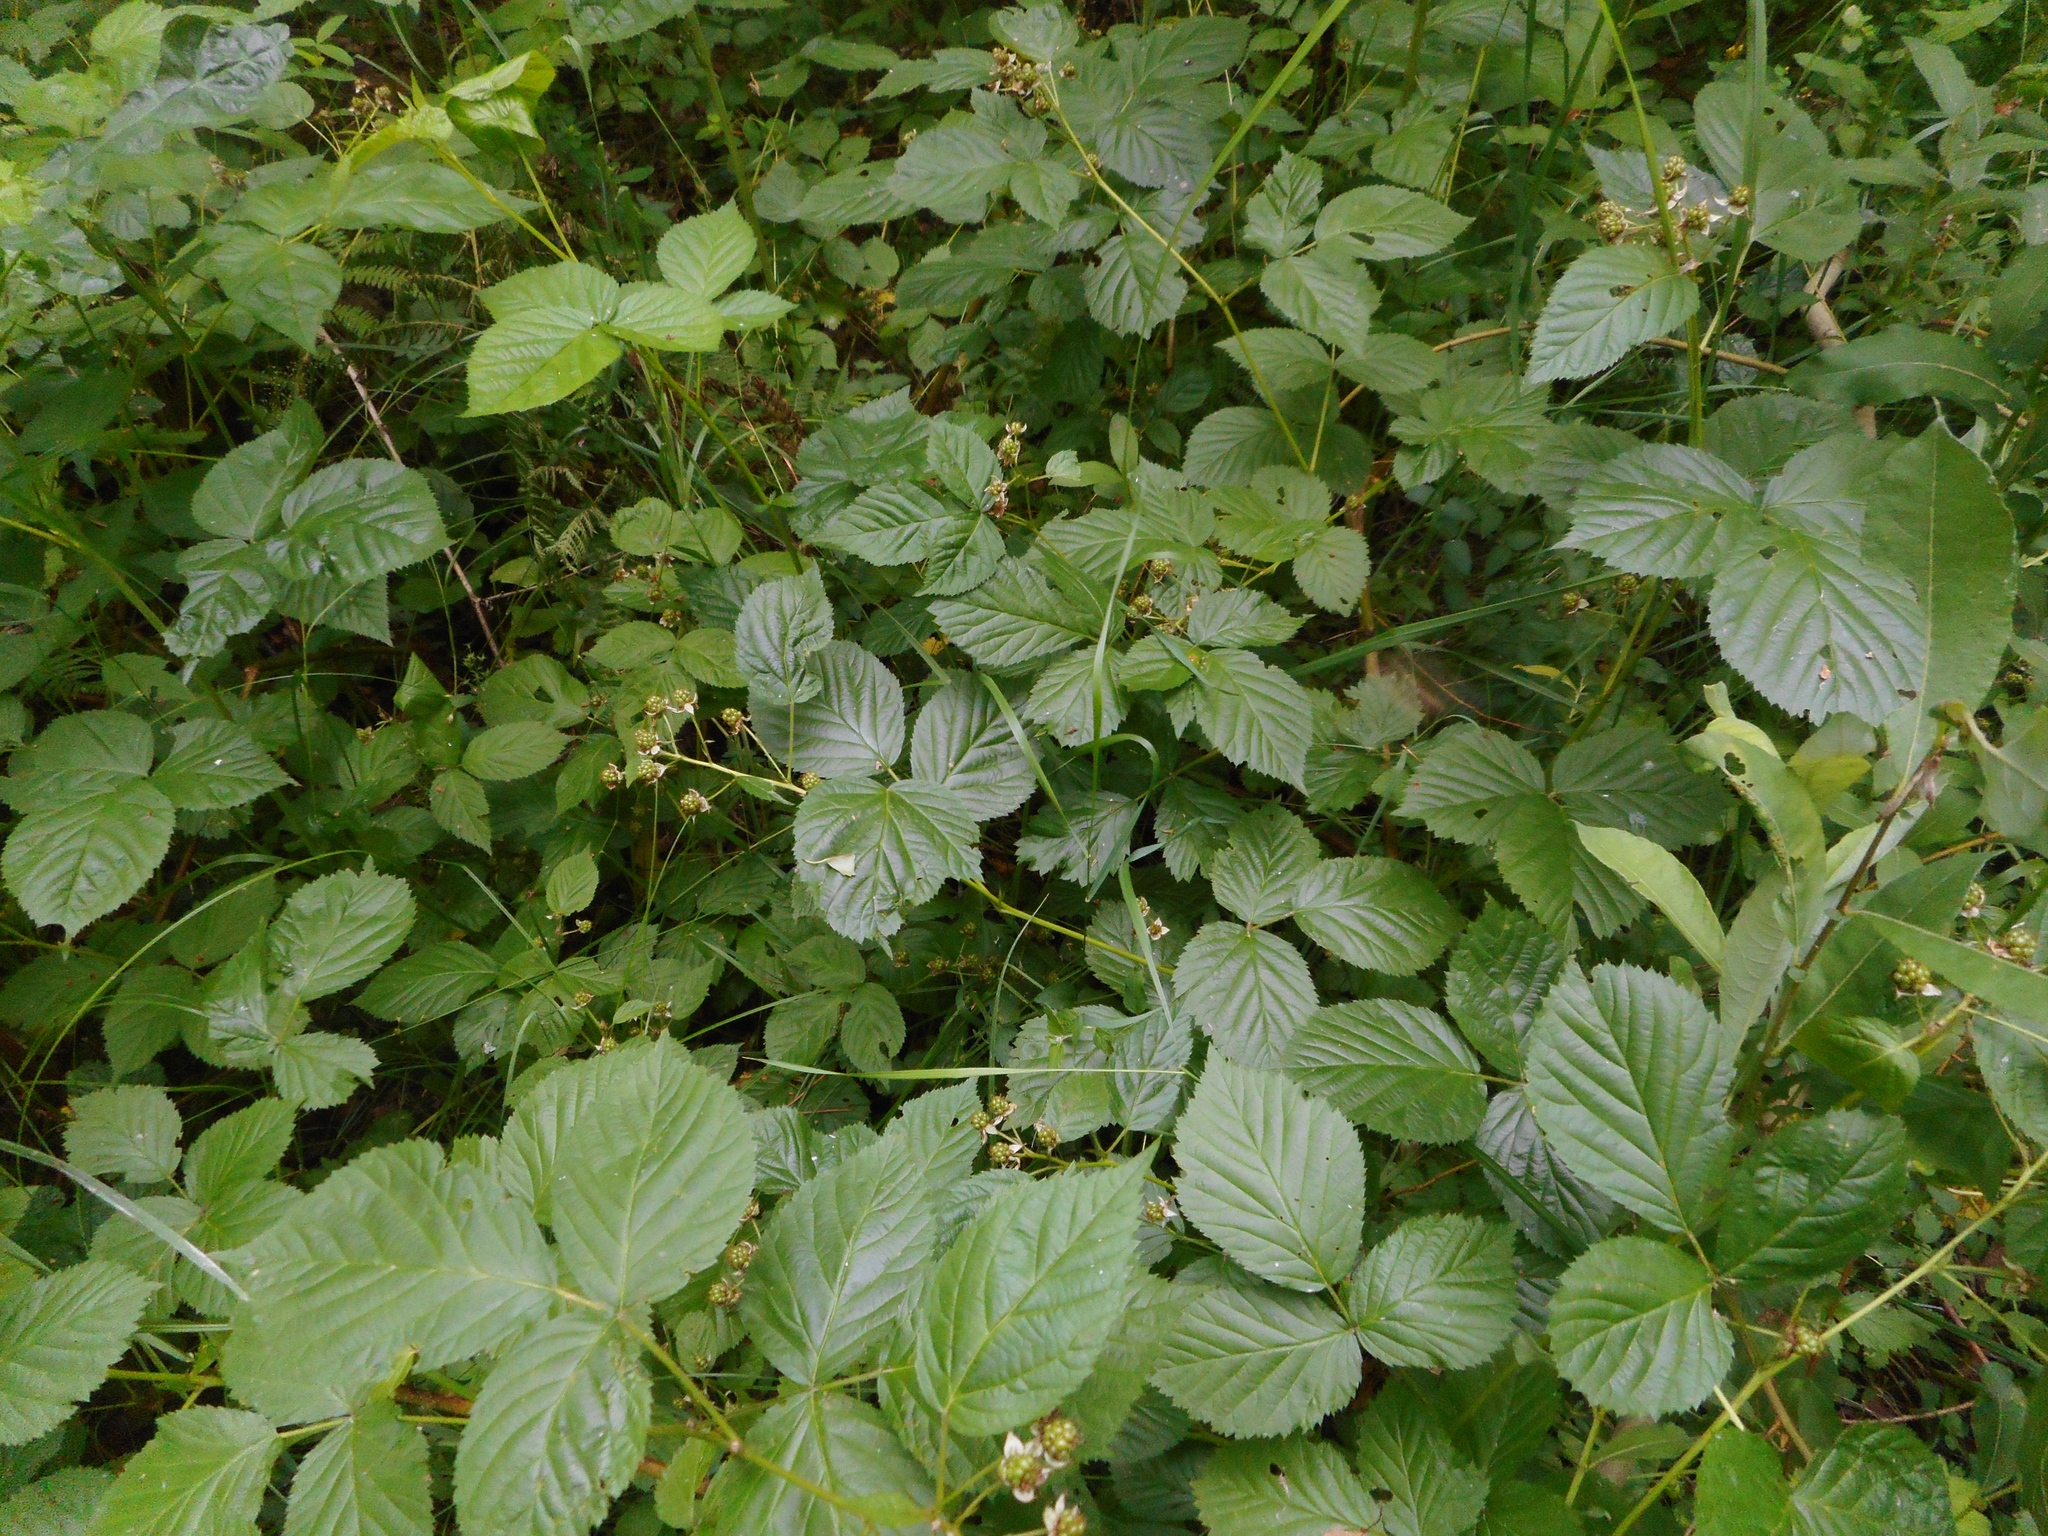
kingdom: Plantae
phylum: Tracheophyta
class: Magnoliopsida
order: Rosales
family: Rosaceae
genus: Rubus
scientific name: Rubus polonicus
